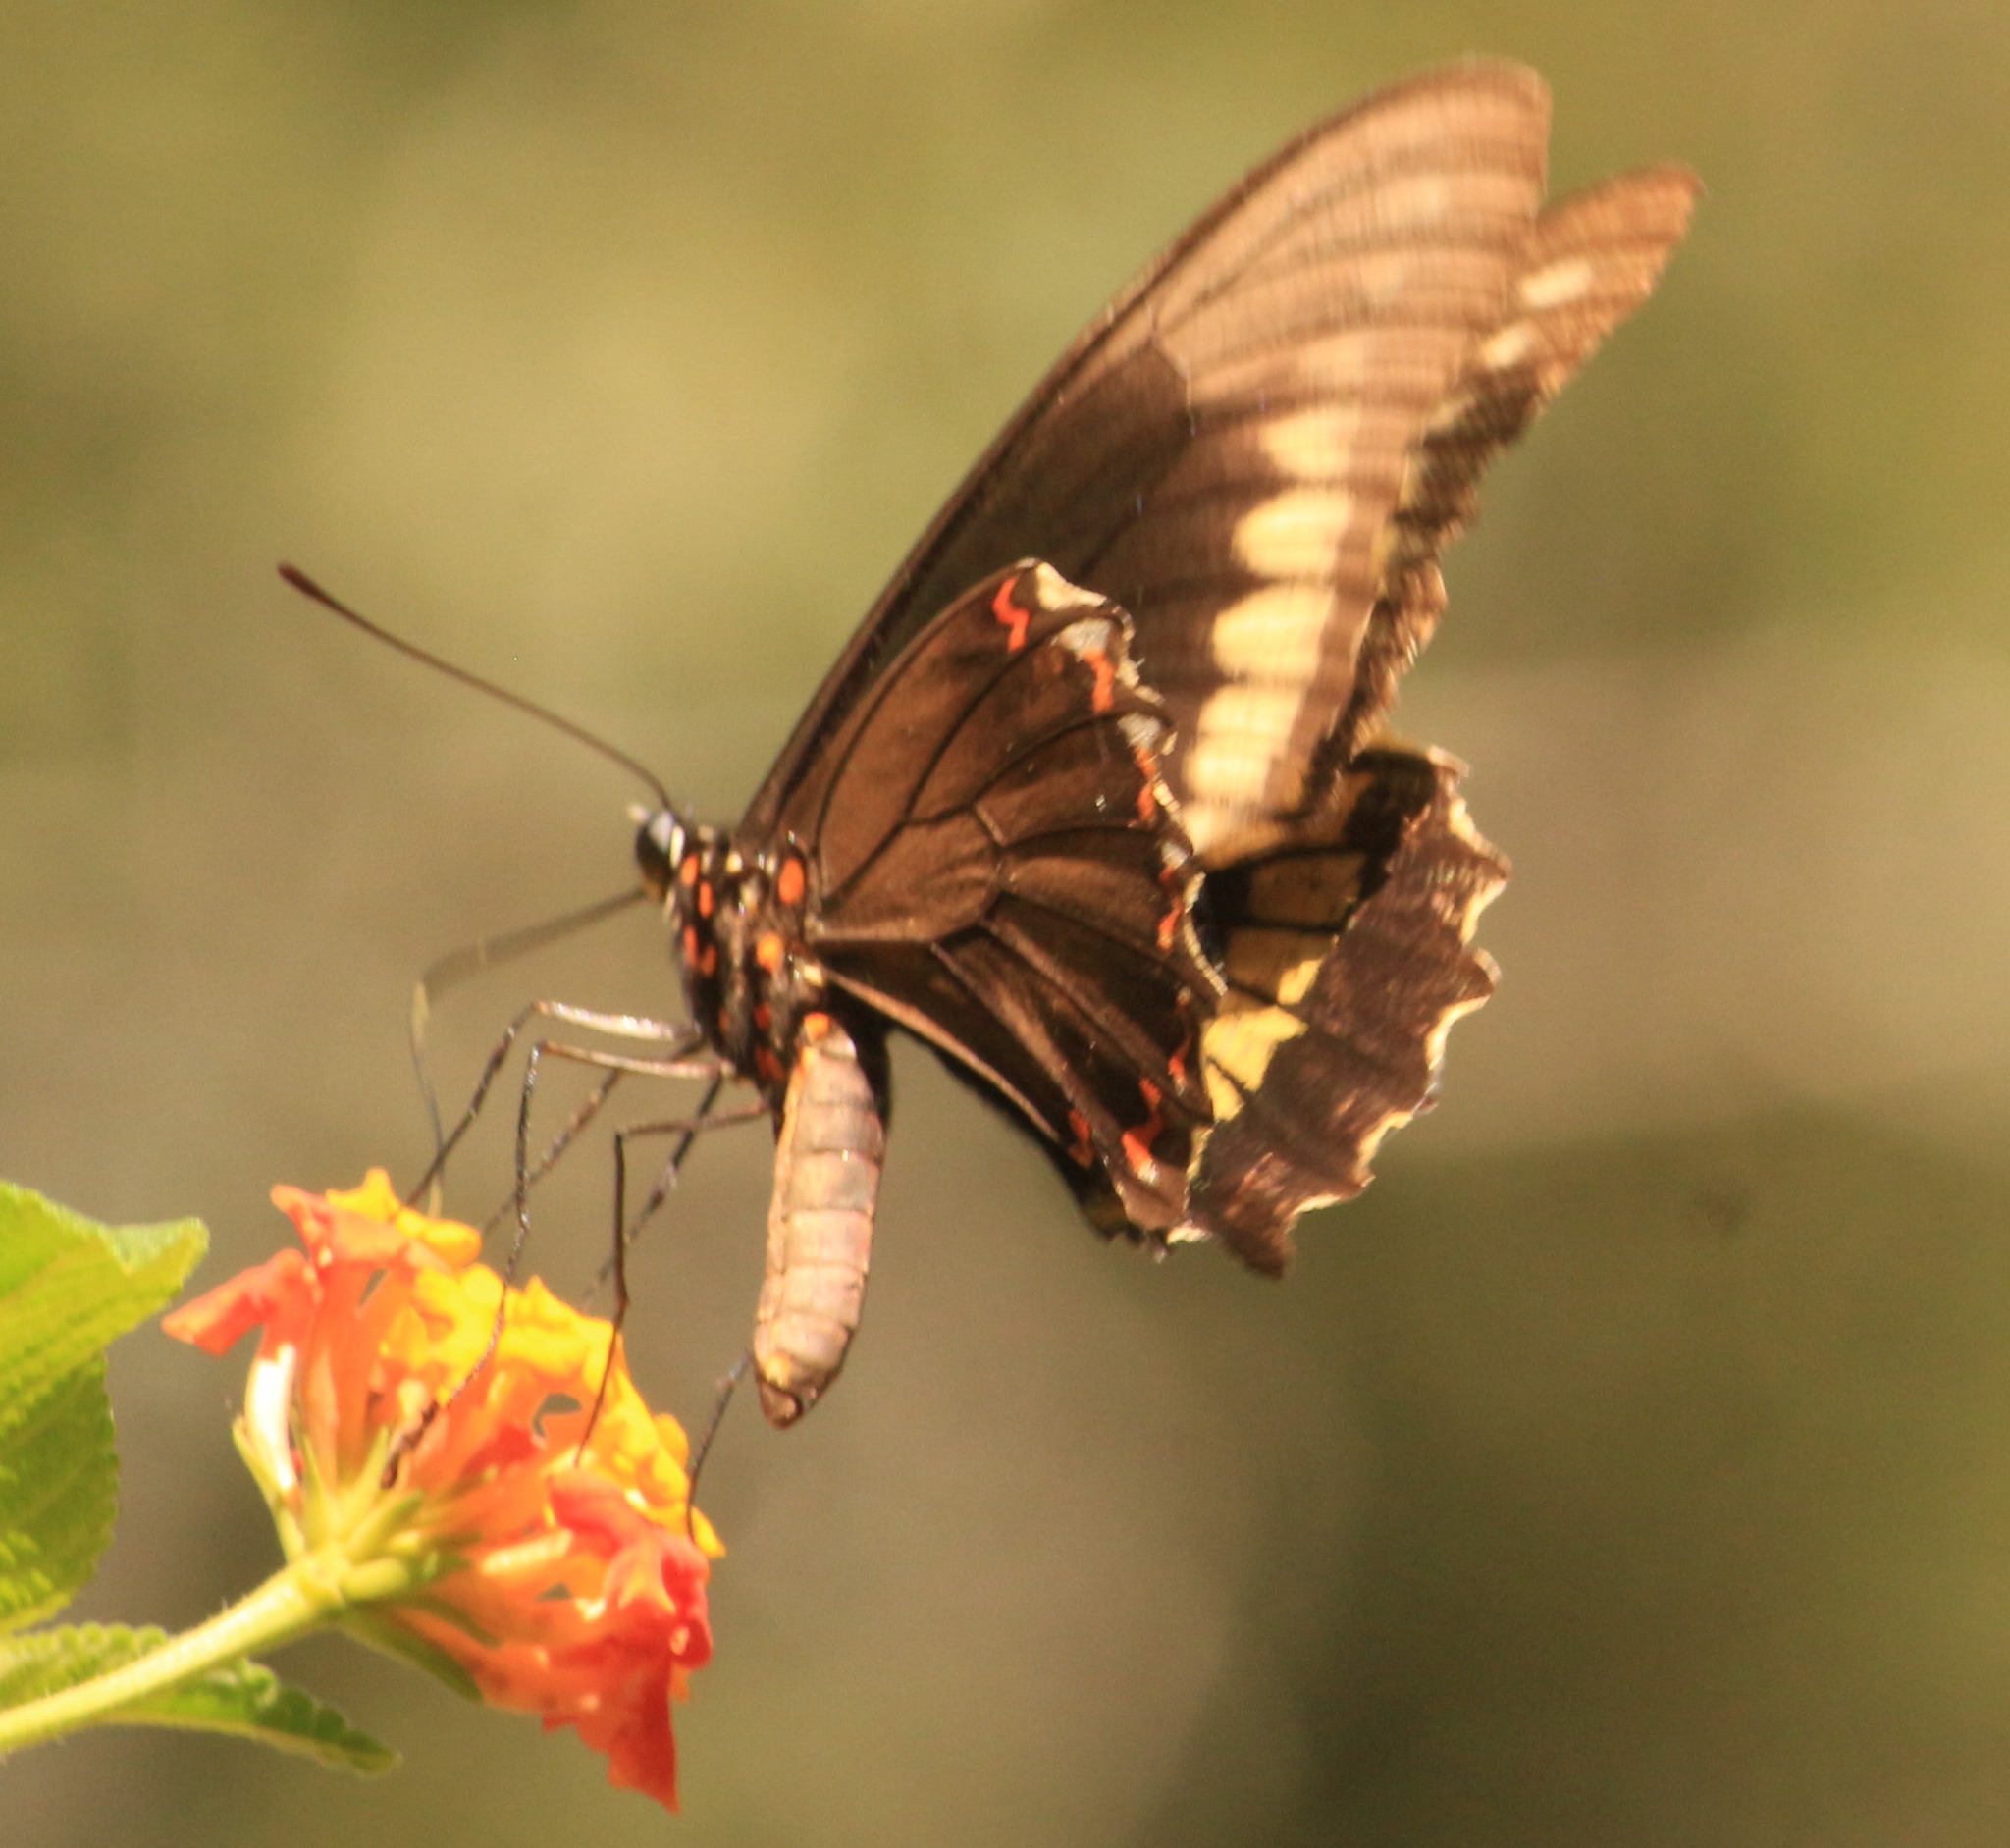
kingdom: Animalia
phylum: Arthropoda
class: Insecta
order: Lepidoptera
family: Papilionidae
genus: Battus
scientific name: Battus polydamas
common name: Polydamas swallowtail
